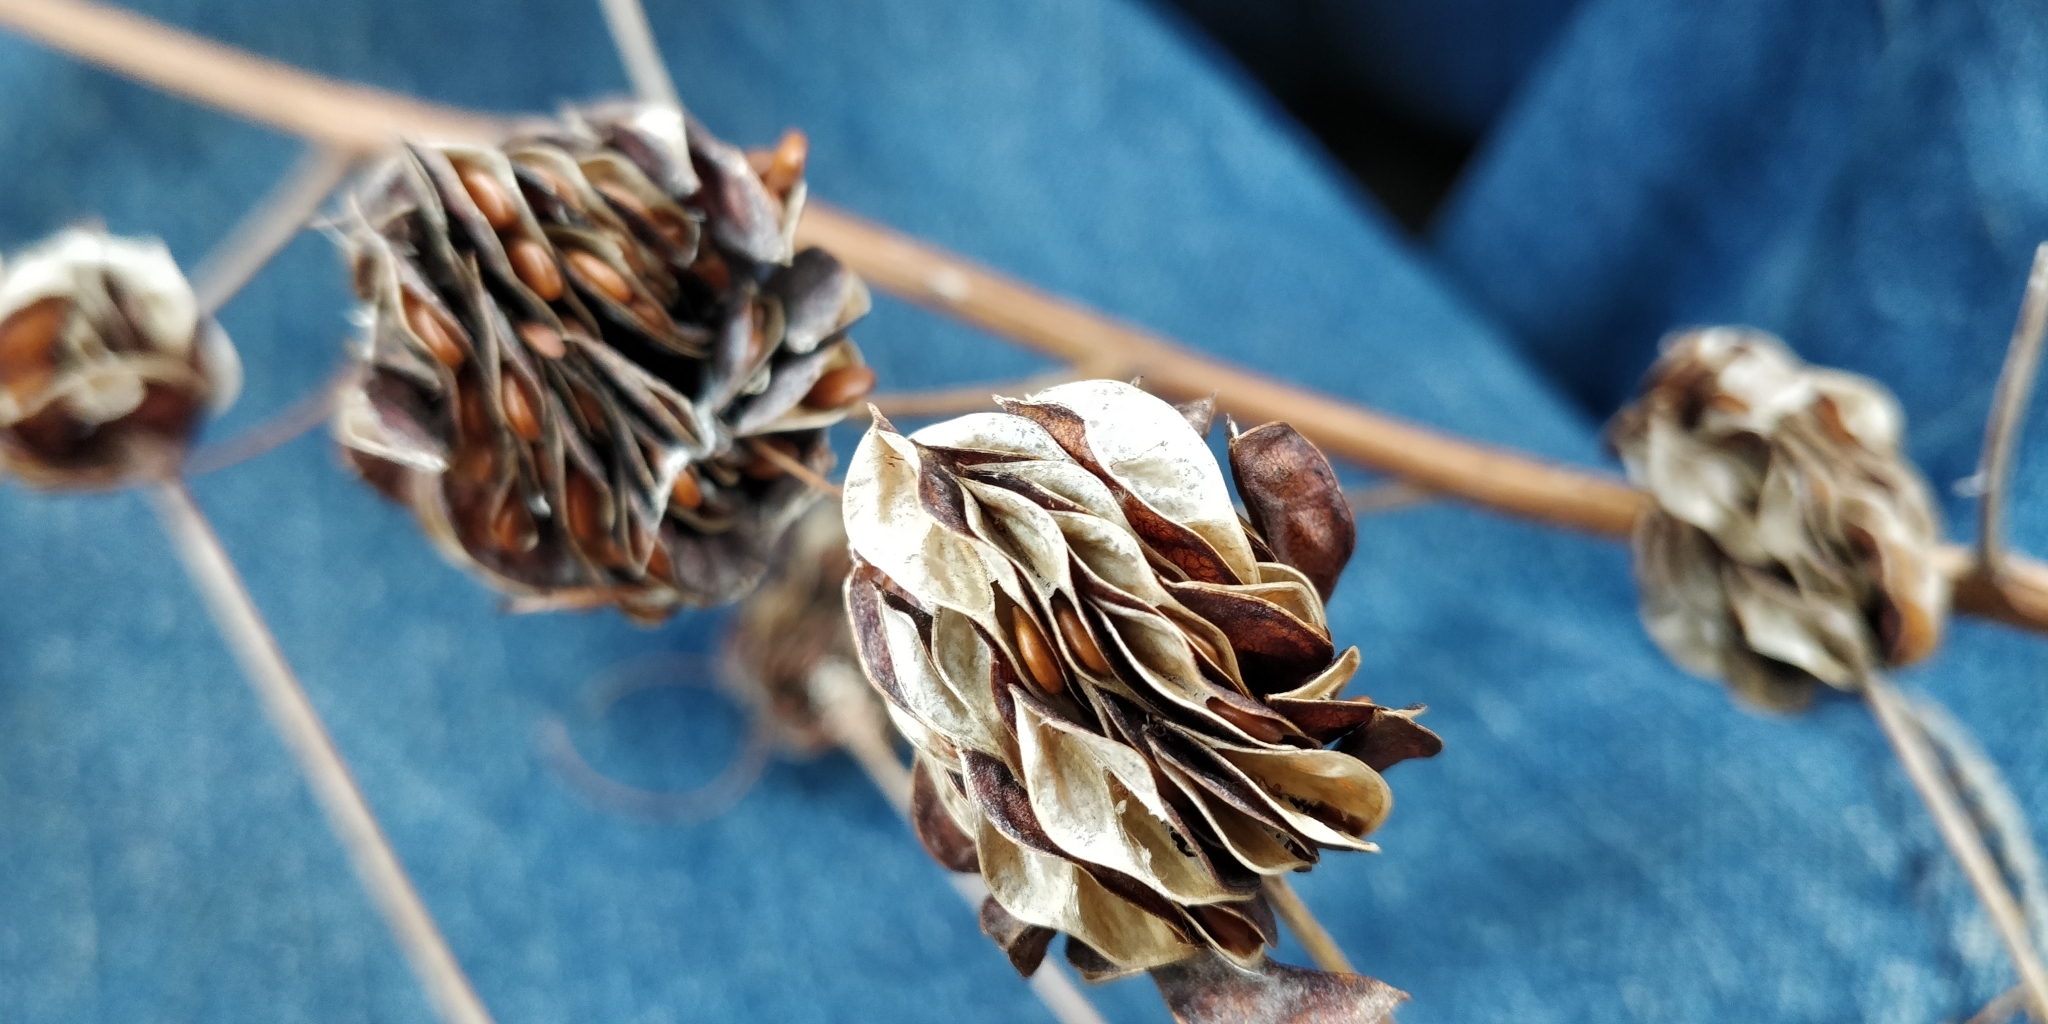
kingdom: Plantae
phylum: Tracheophyta
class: Magnoliopsida
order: Fabales
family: Fabaceae
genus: Desmanthus
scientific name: Desmanthus illinoensis
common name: Illinois bundle-flower
